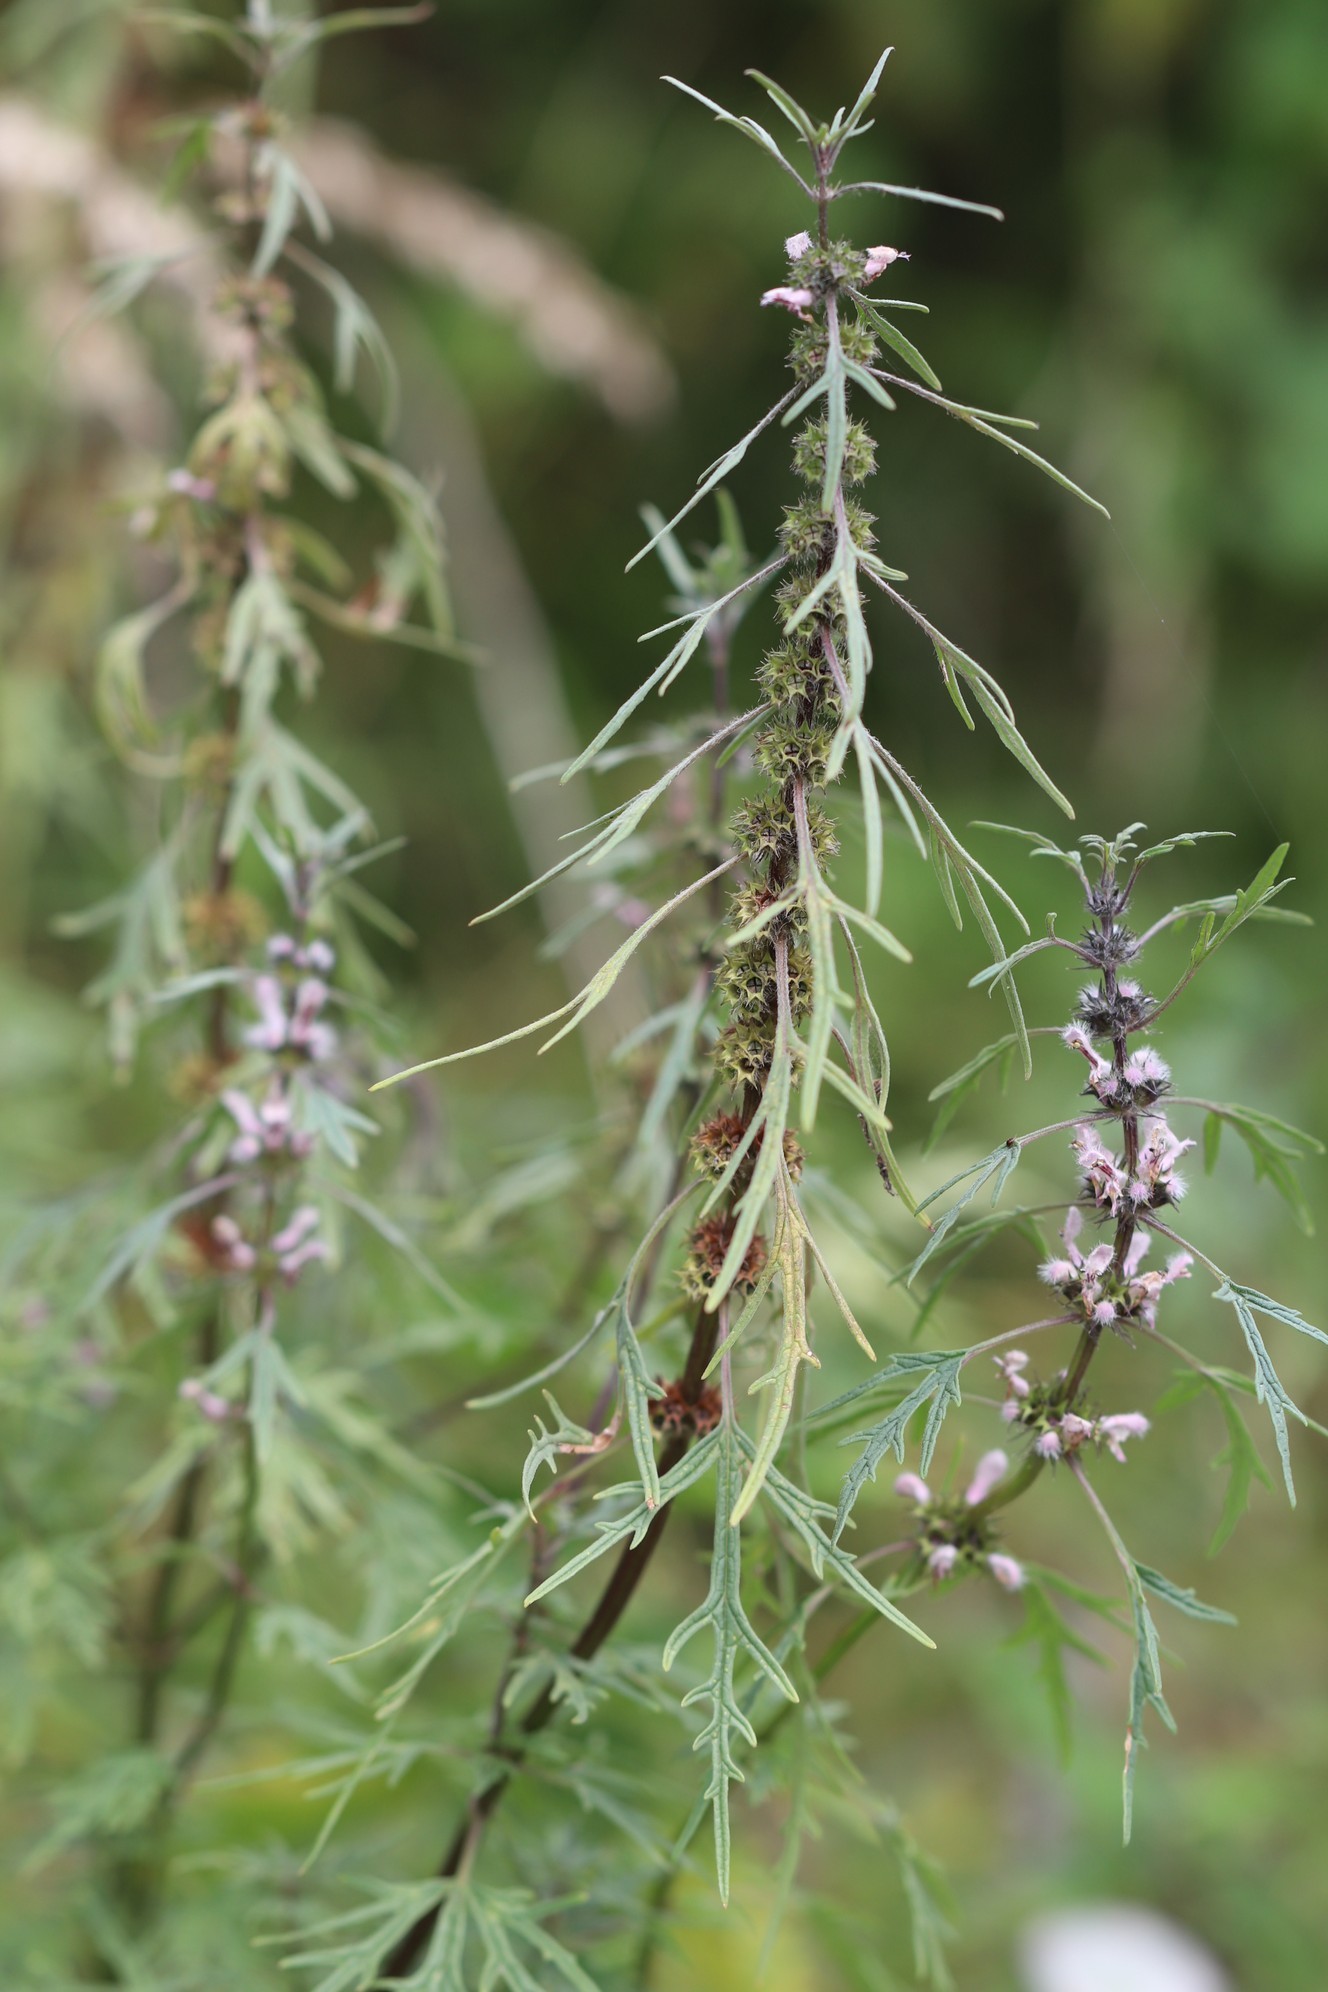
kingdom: Plantae
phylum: Tracheophyta
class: Magnoliopsida
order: Lamiales
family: Lamiaceae
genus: Leonurus
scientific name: Leonurus tataricus
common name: Chinese motherwort
